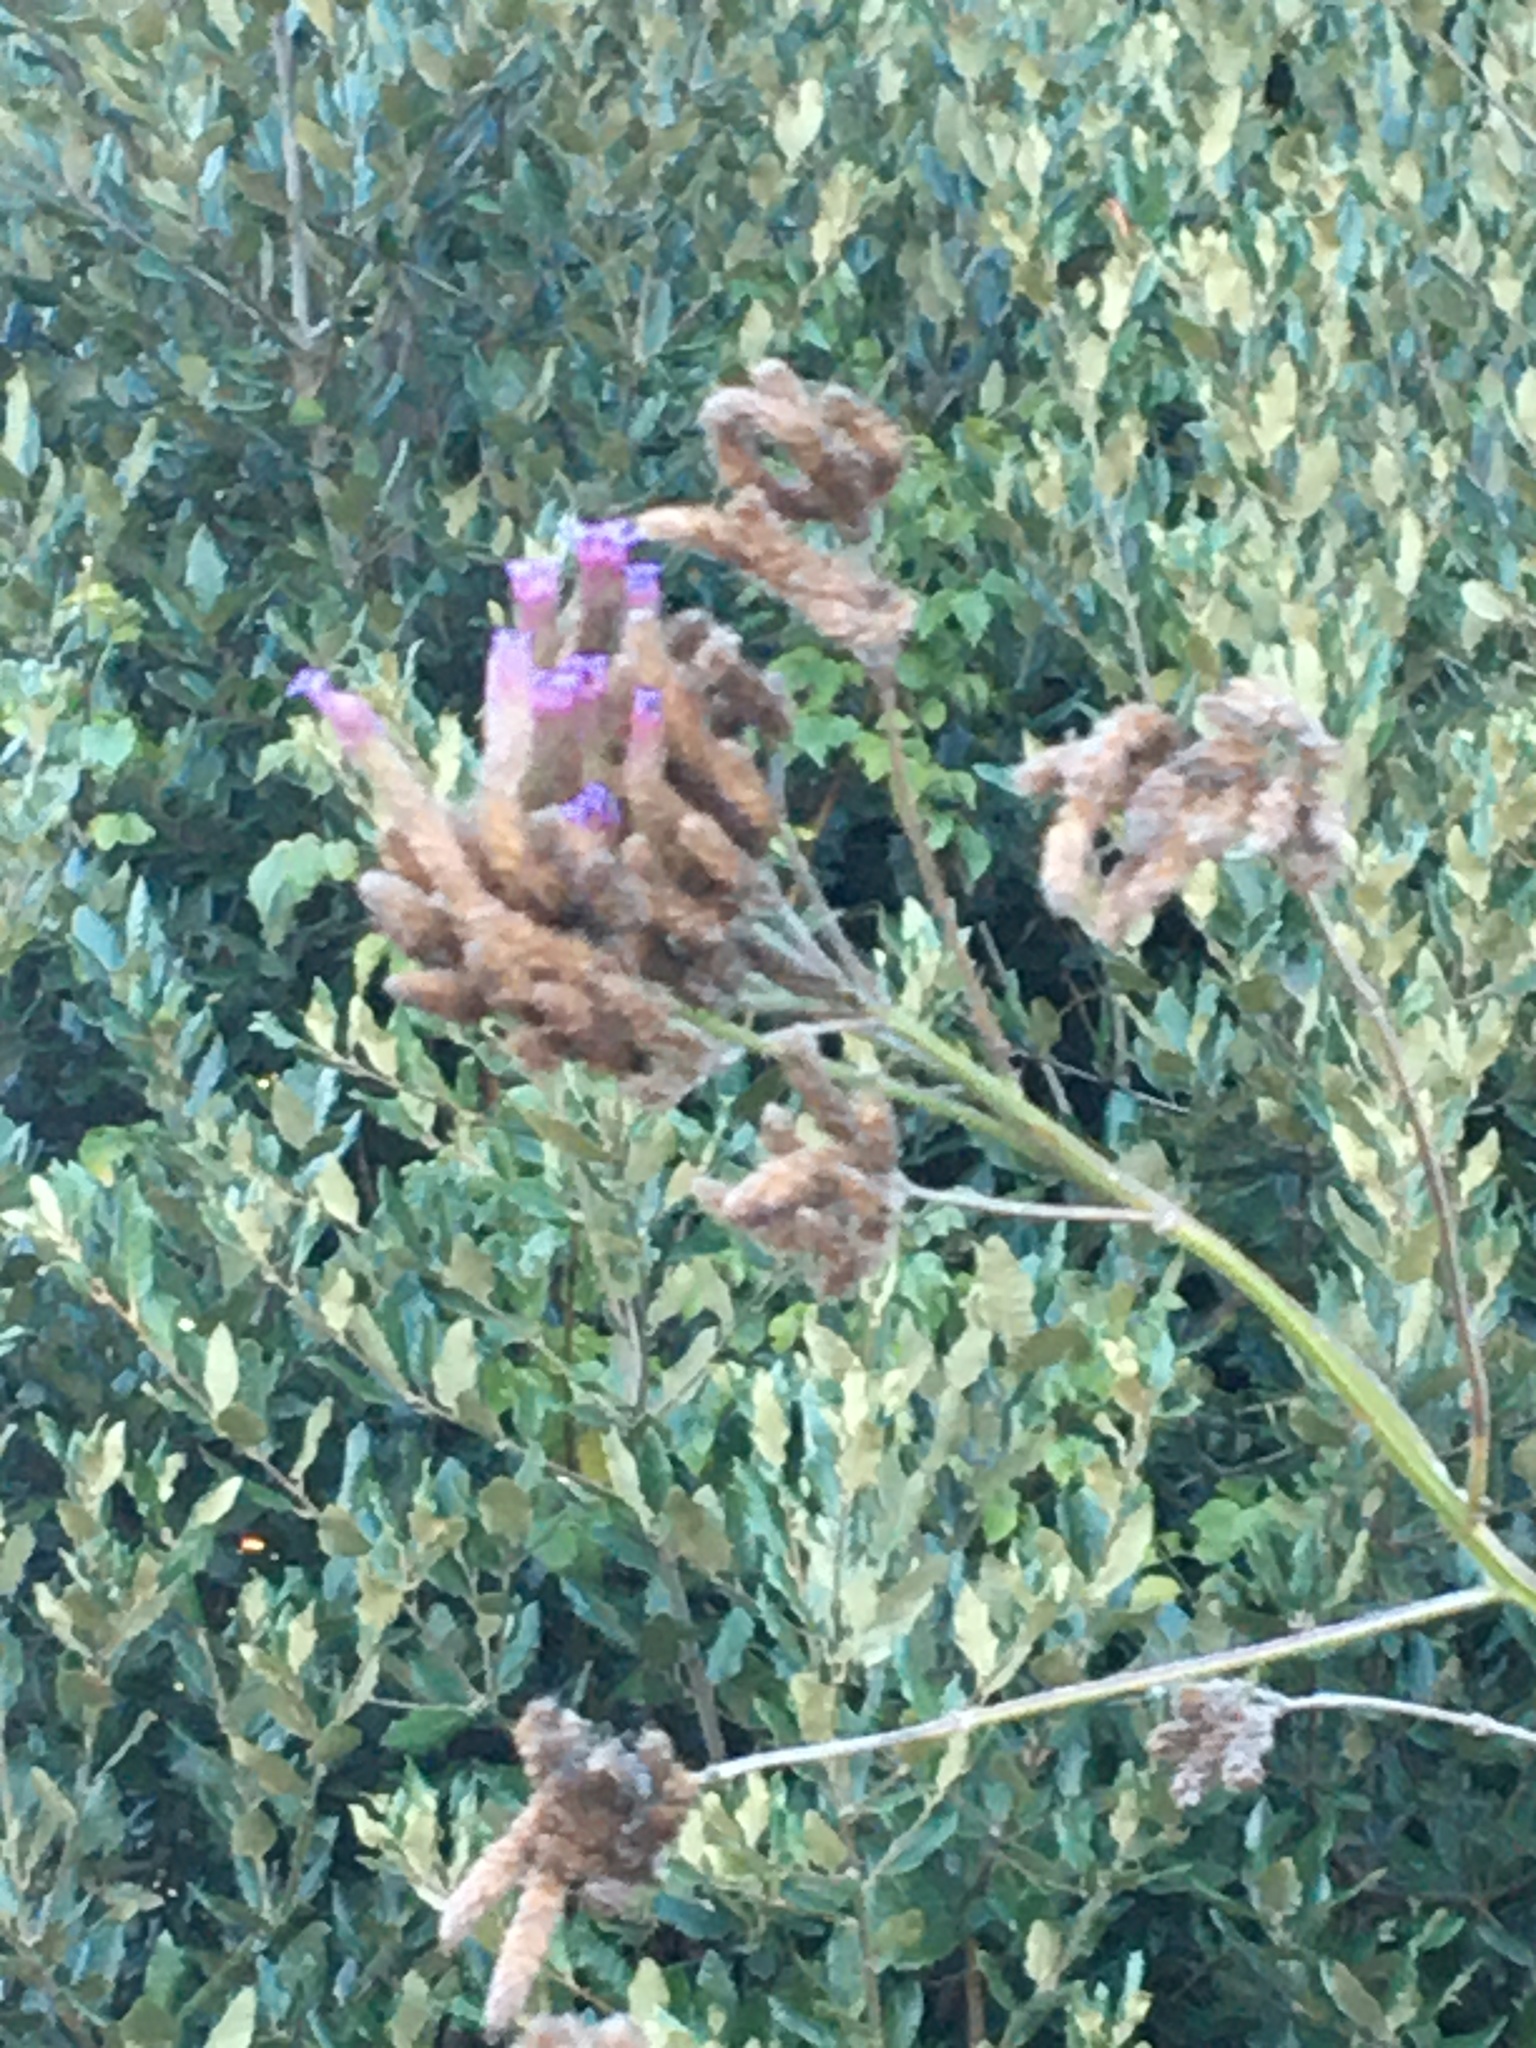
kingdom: Plantae
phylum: Tracheophyta
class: Magnoliopsida
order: Lamiales
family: Verbenaceae
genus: Verbena
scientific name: Verbena bonariensis
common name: Purpletop vervain
